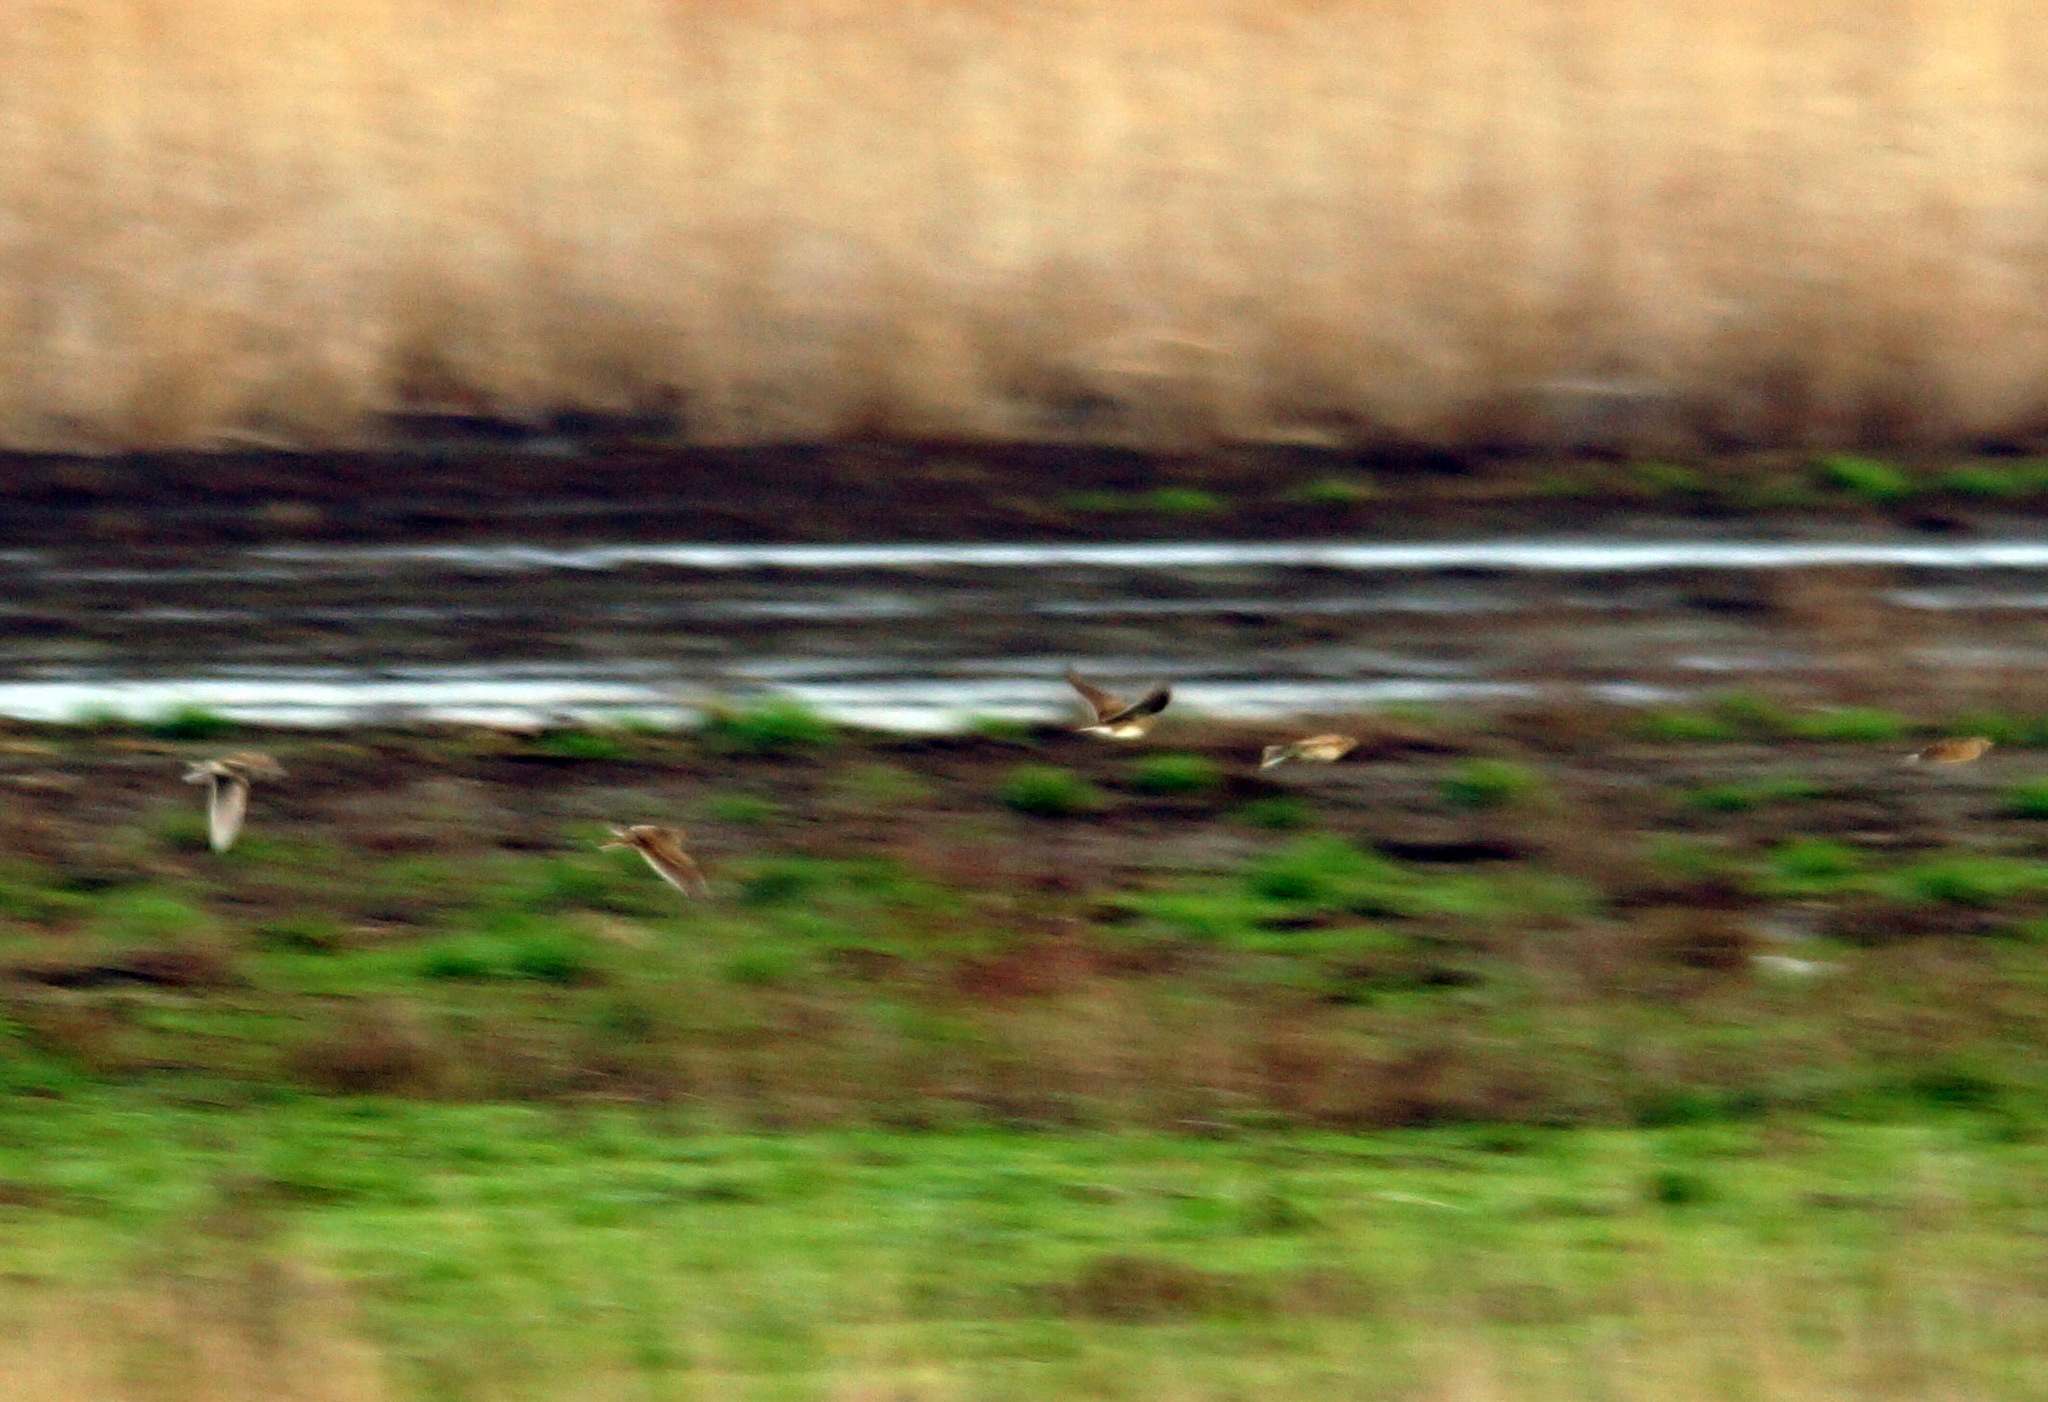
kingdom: Animalia
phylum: Chordata
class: Aves
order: Passeriformes
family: Alaudidae
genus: Melanocorypha
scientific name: Melanocorypha calandra
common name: Calandra lark
